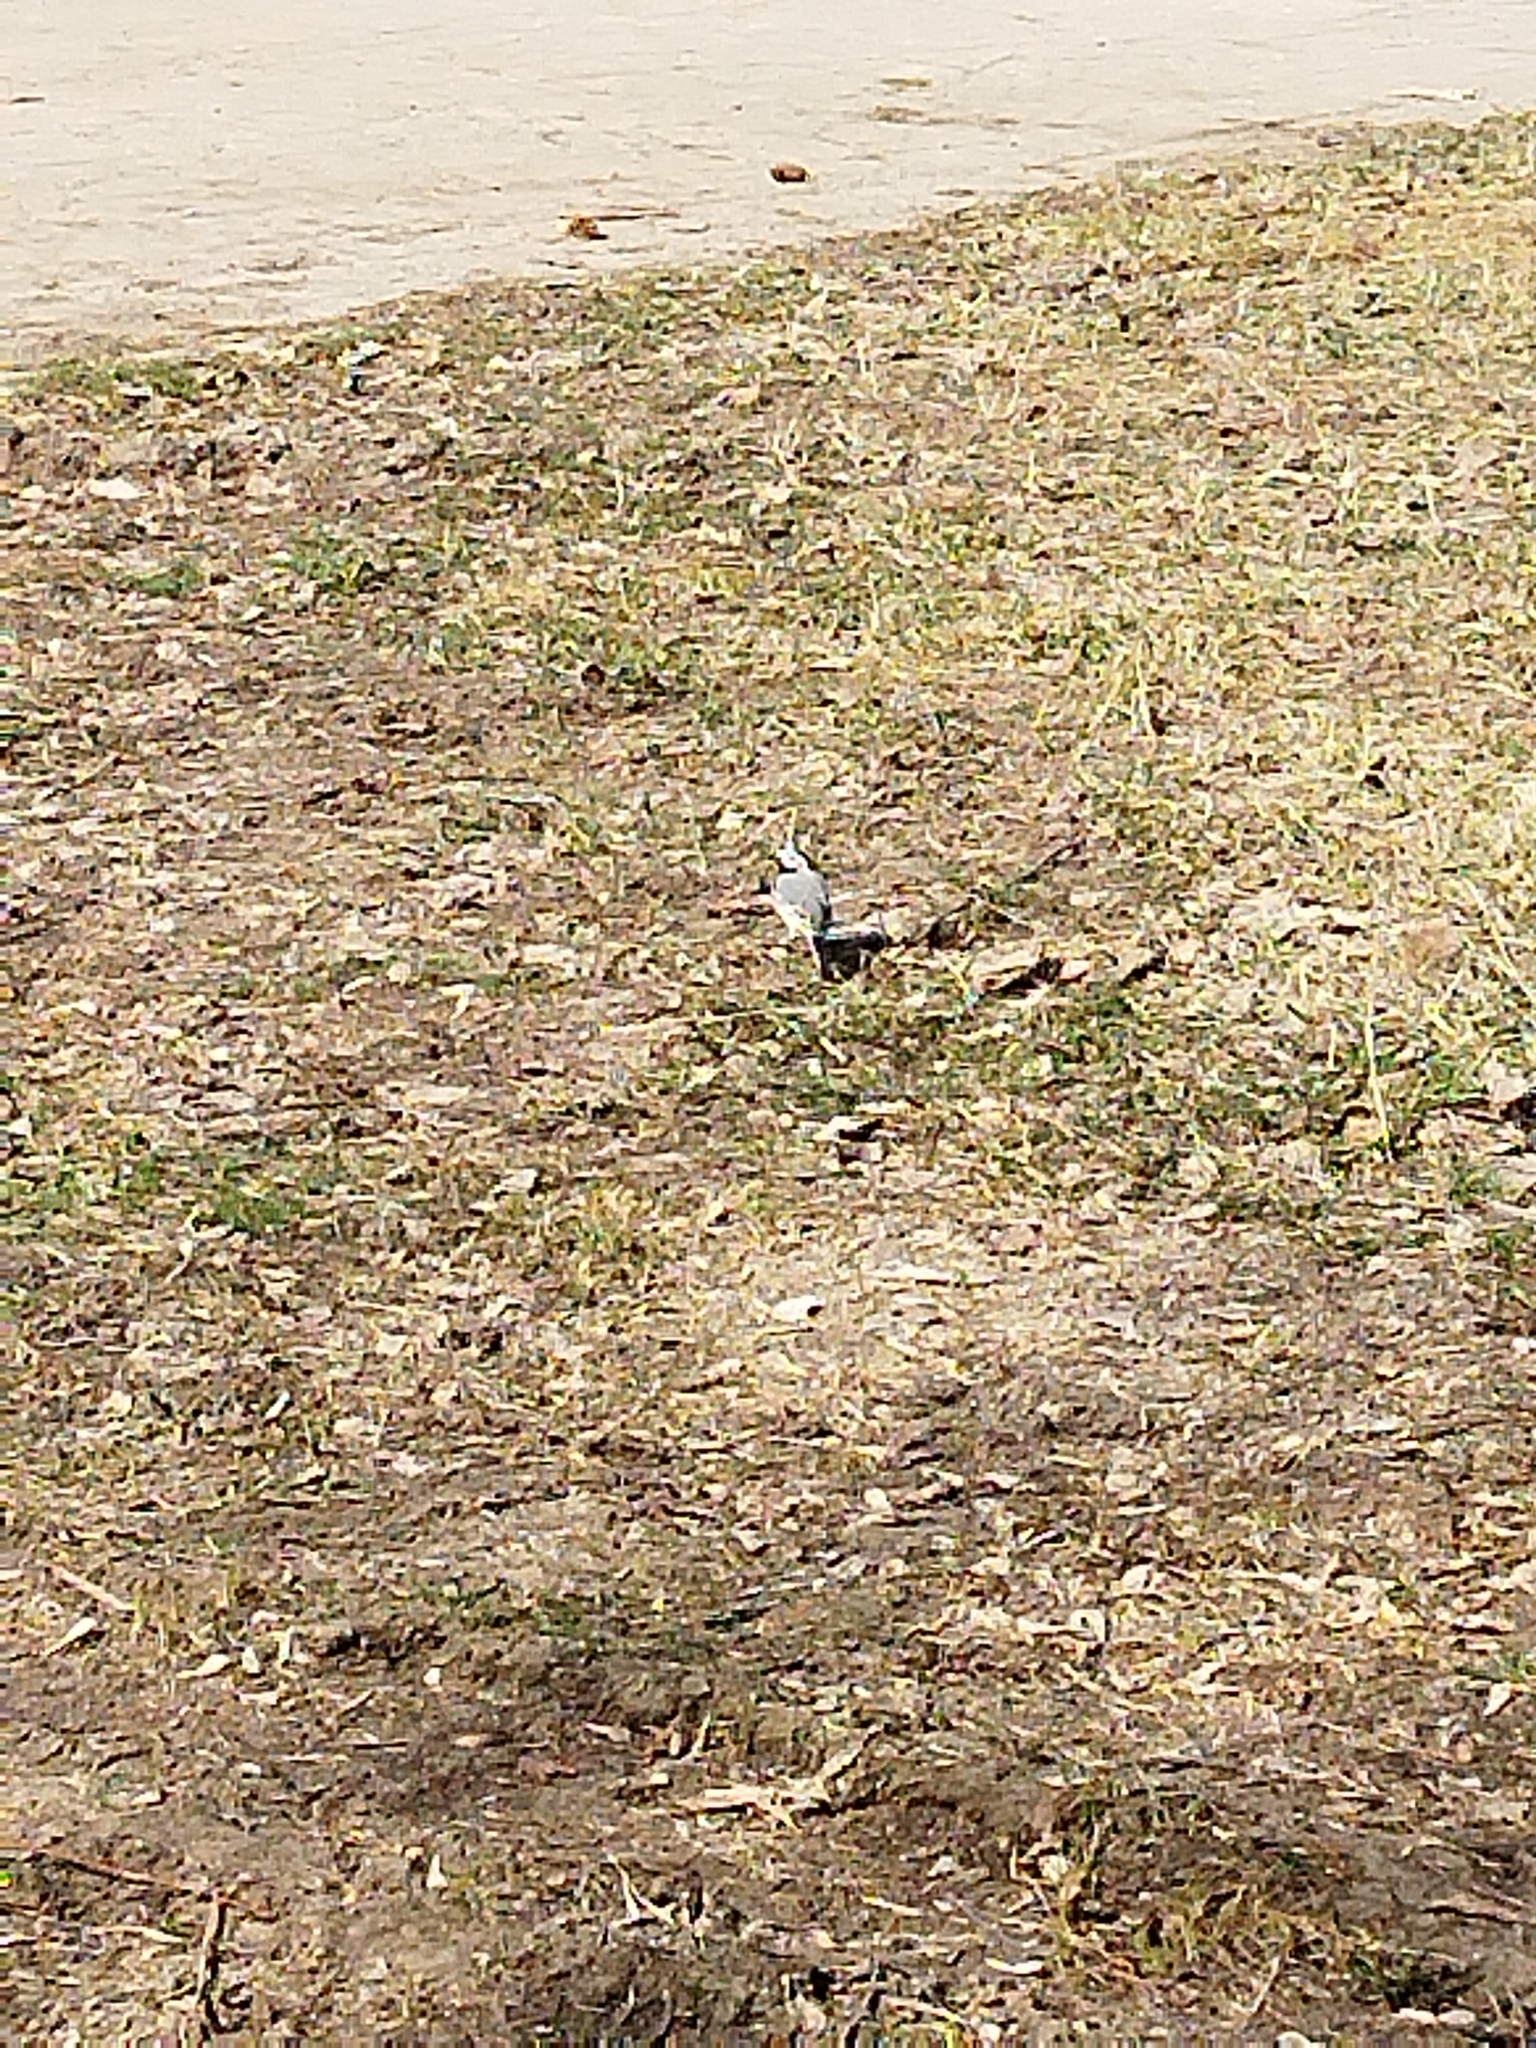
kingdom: Animalia
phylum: Chordata
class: Aves
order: Passeriformes
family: Motacillidae
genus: Motacilla
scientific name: Motacilla alba
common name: White wagtail
